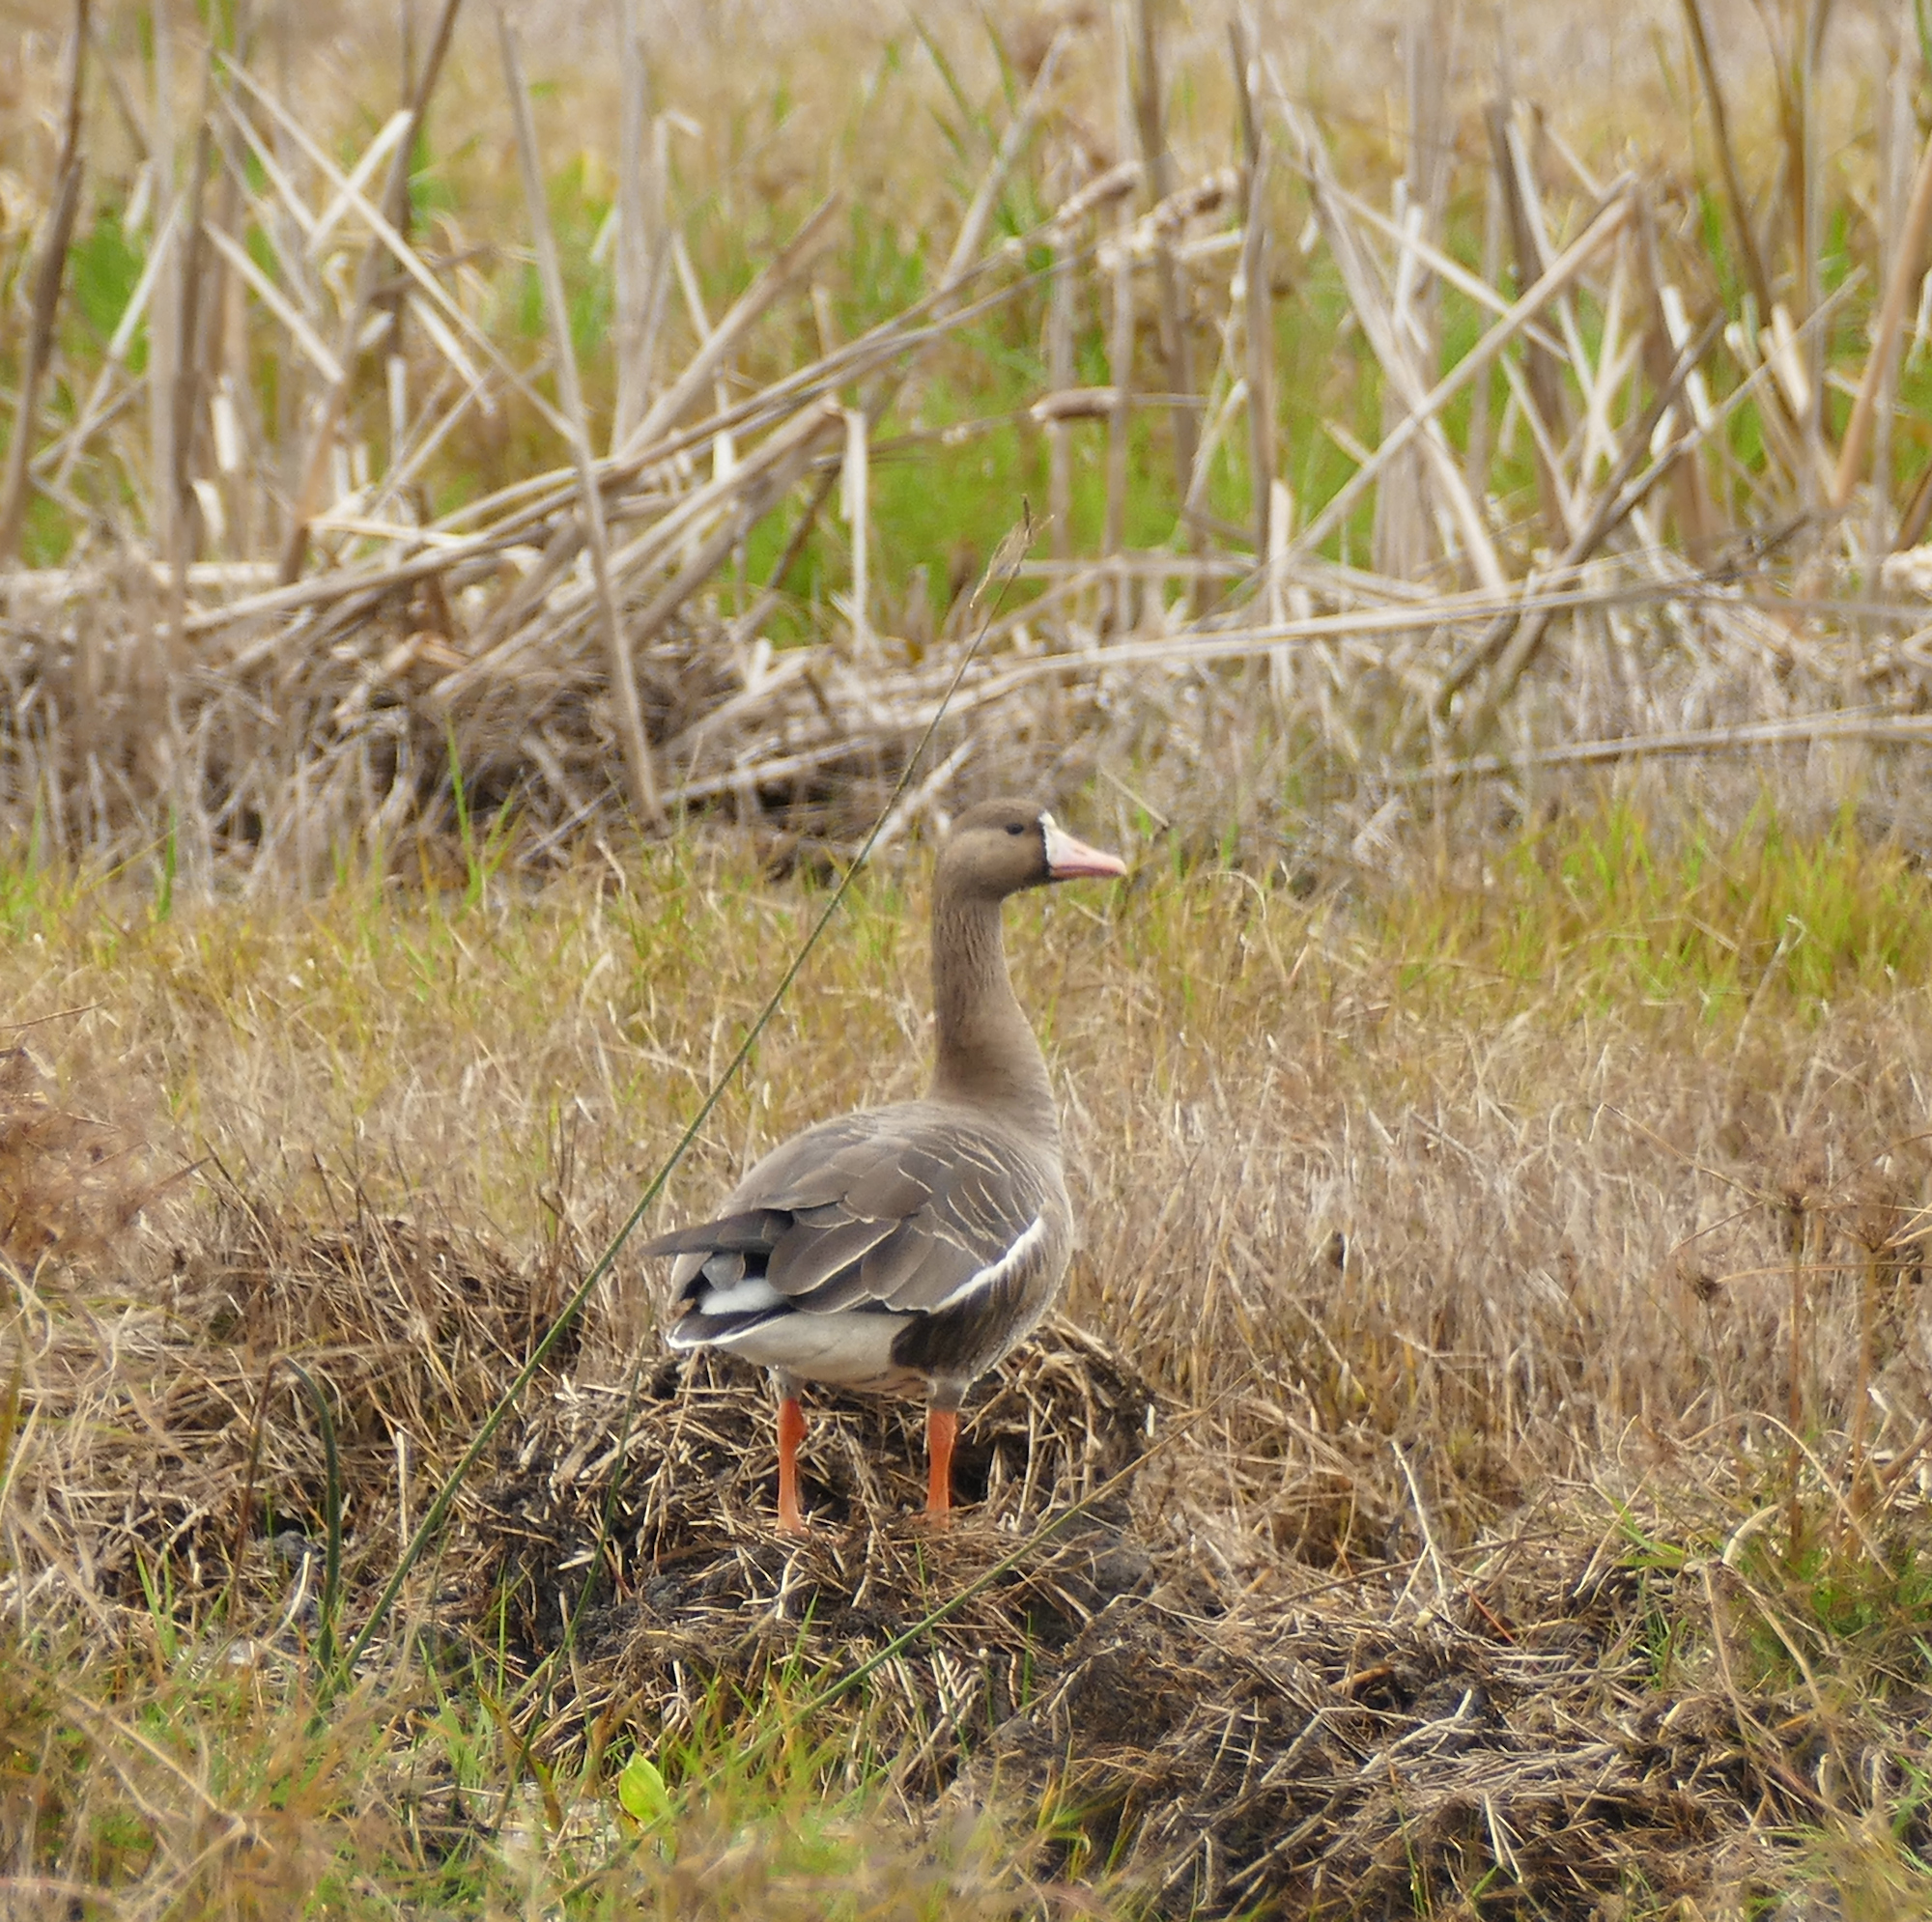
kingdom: Animalia
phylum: Chordata
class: Aves
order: Anseriformes
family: Anatidae
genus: Anser
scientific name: Anser albifrons
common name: Greater white-fronted goose
